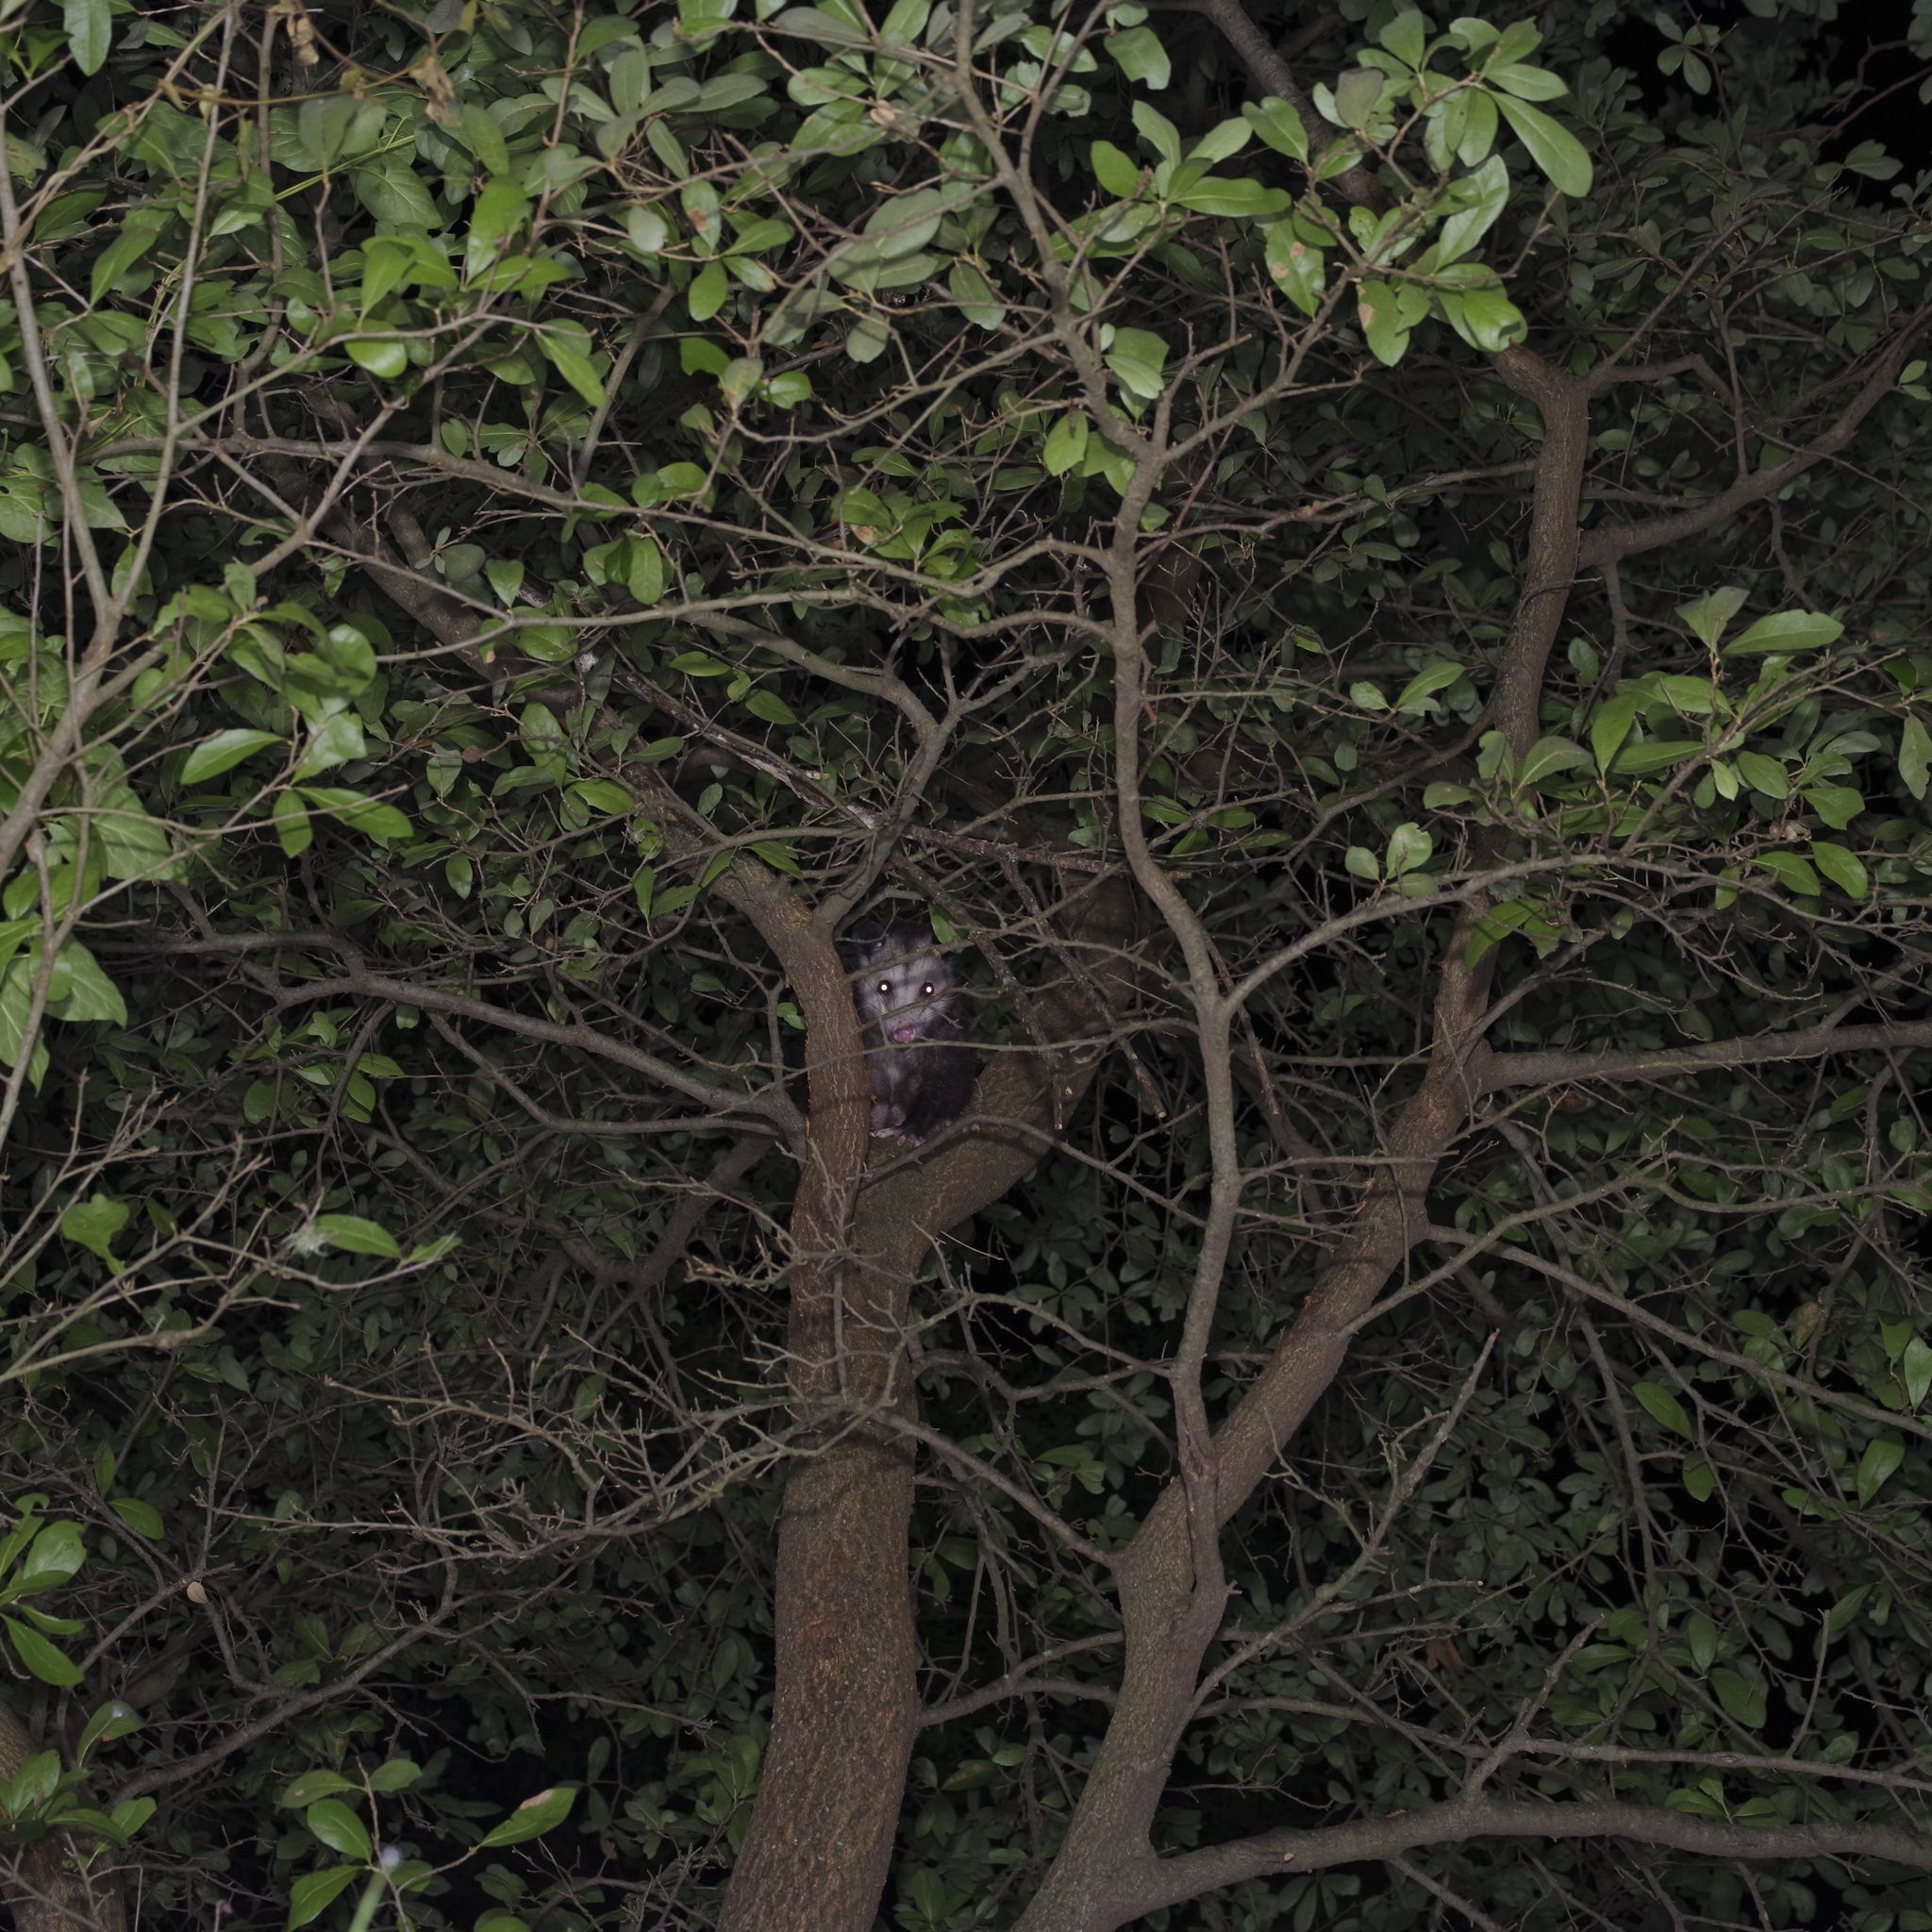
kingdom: Animalia
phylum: Chordata
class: Mammalia
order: Didelphimorphia
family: Didelphidae
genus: Didelphis
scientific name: Didelphis virginiana
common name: Virginia opossum
